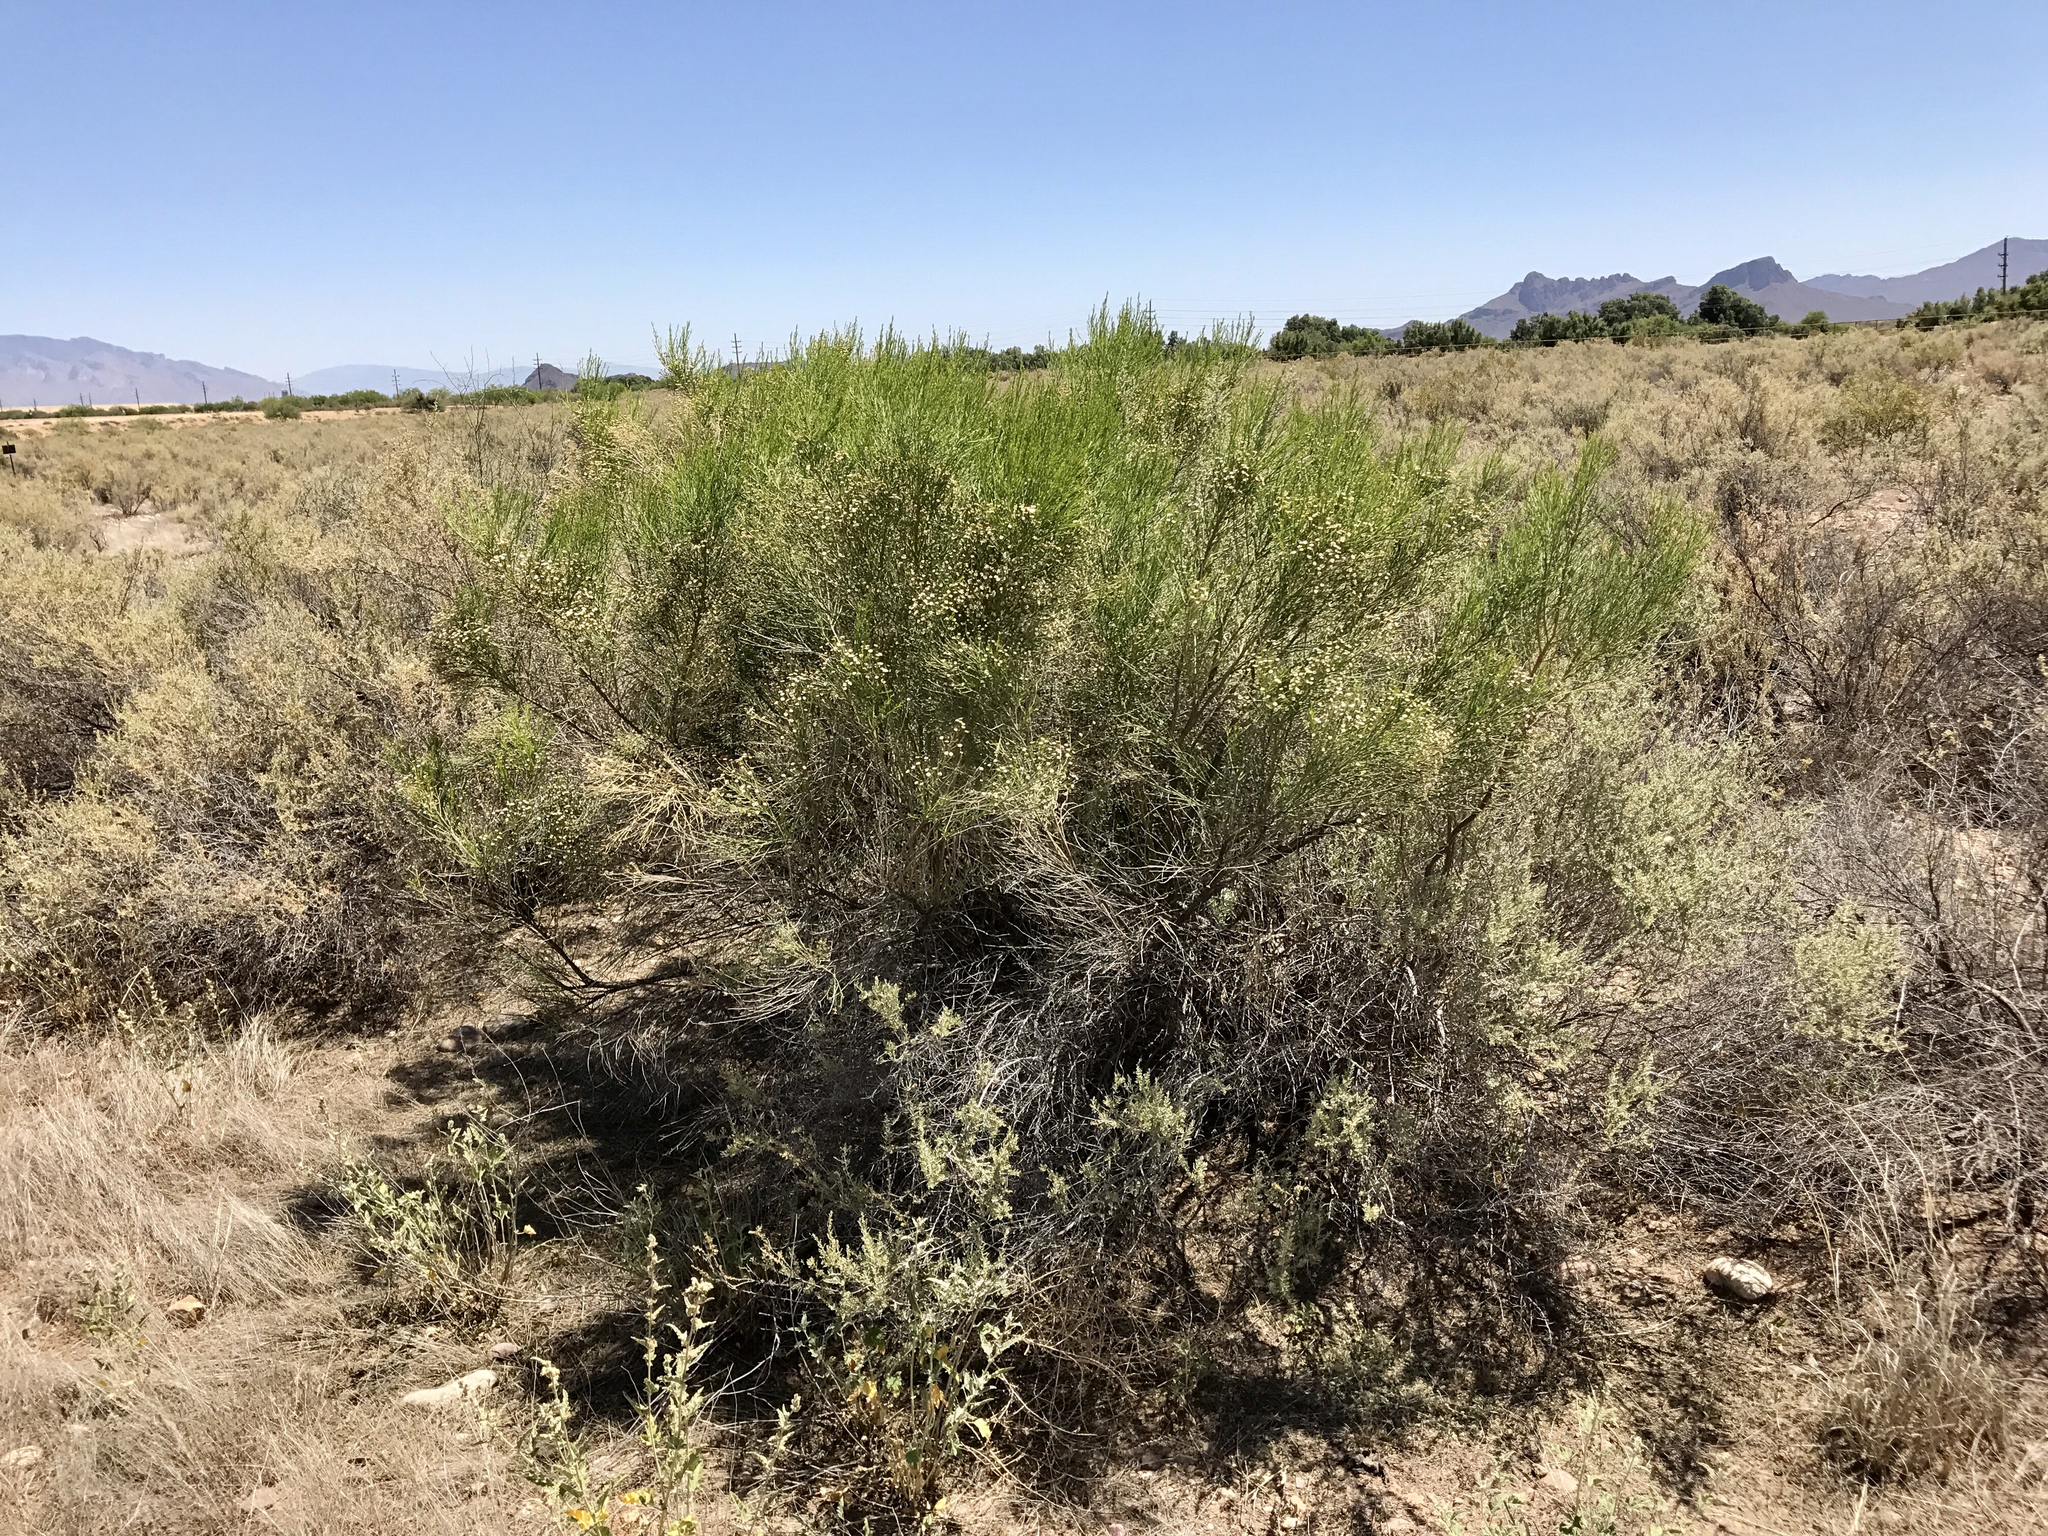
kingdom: Plantae
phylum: Tracheophyta
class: Magnoliopsida
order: Asterales
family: Asteraceae
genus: Baccharis
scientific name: Baccharis sarothroides
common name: Desert-broom
